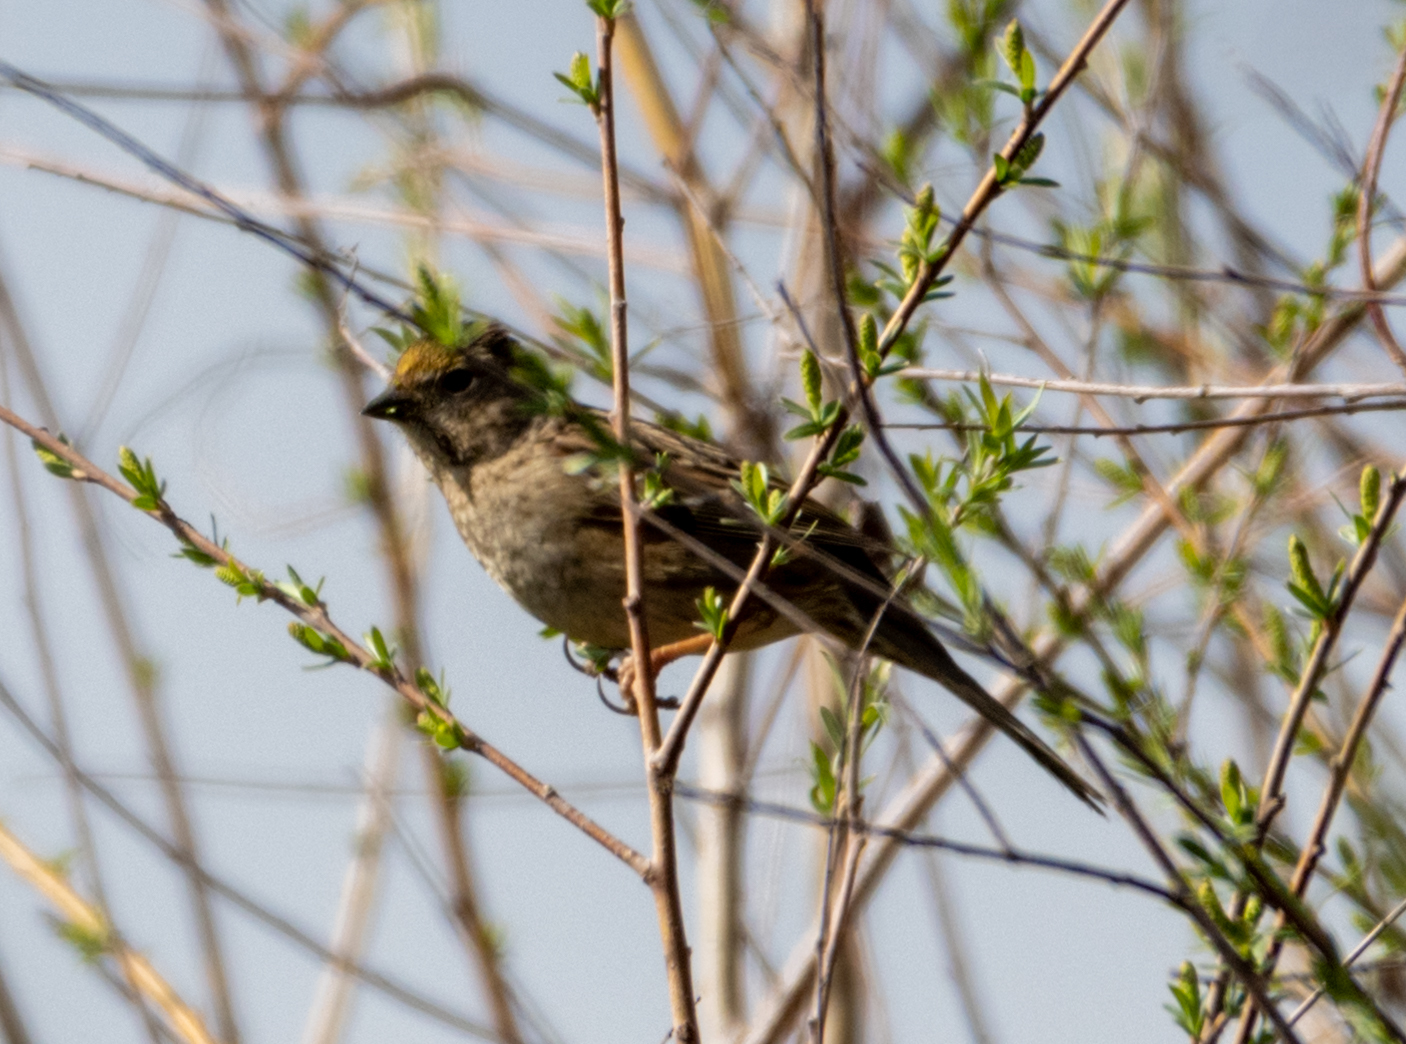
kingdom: Animalia
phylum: Chordata
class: Aves
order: Passeriformes
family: Passerellidae
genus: Zonotrichia
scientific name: Zonotrichia atricapilla
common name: Golden-crowned sparrow
